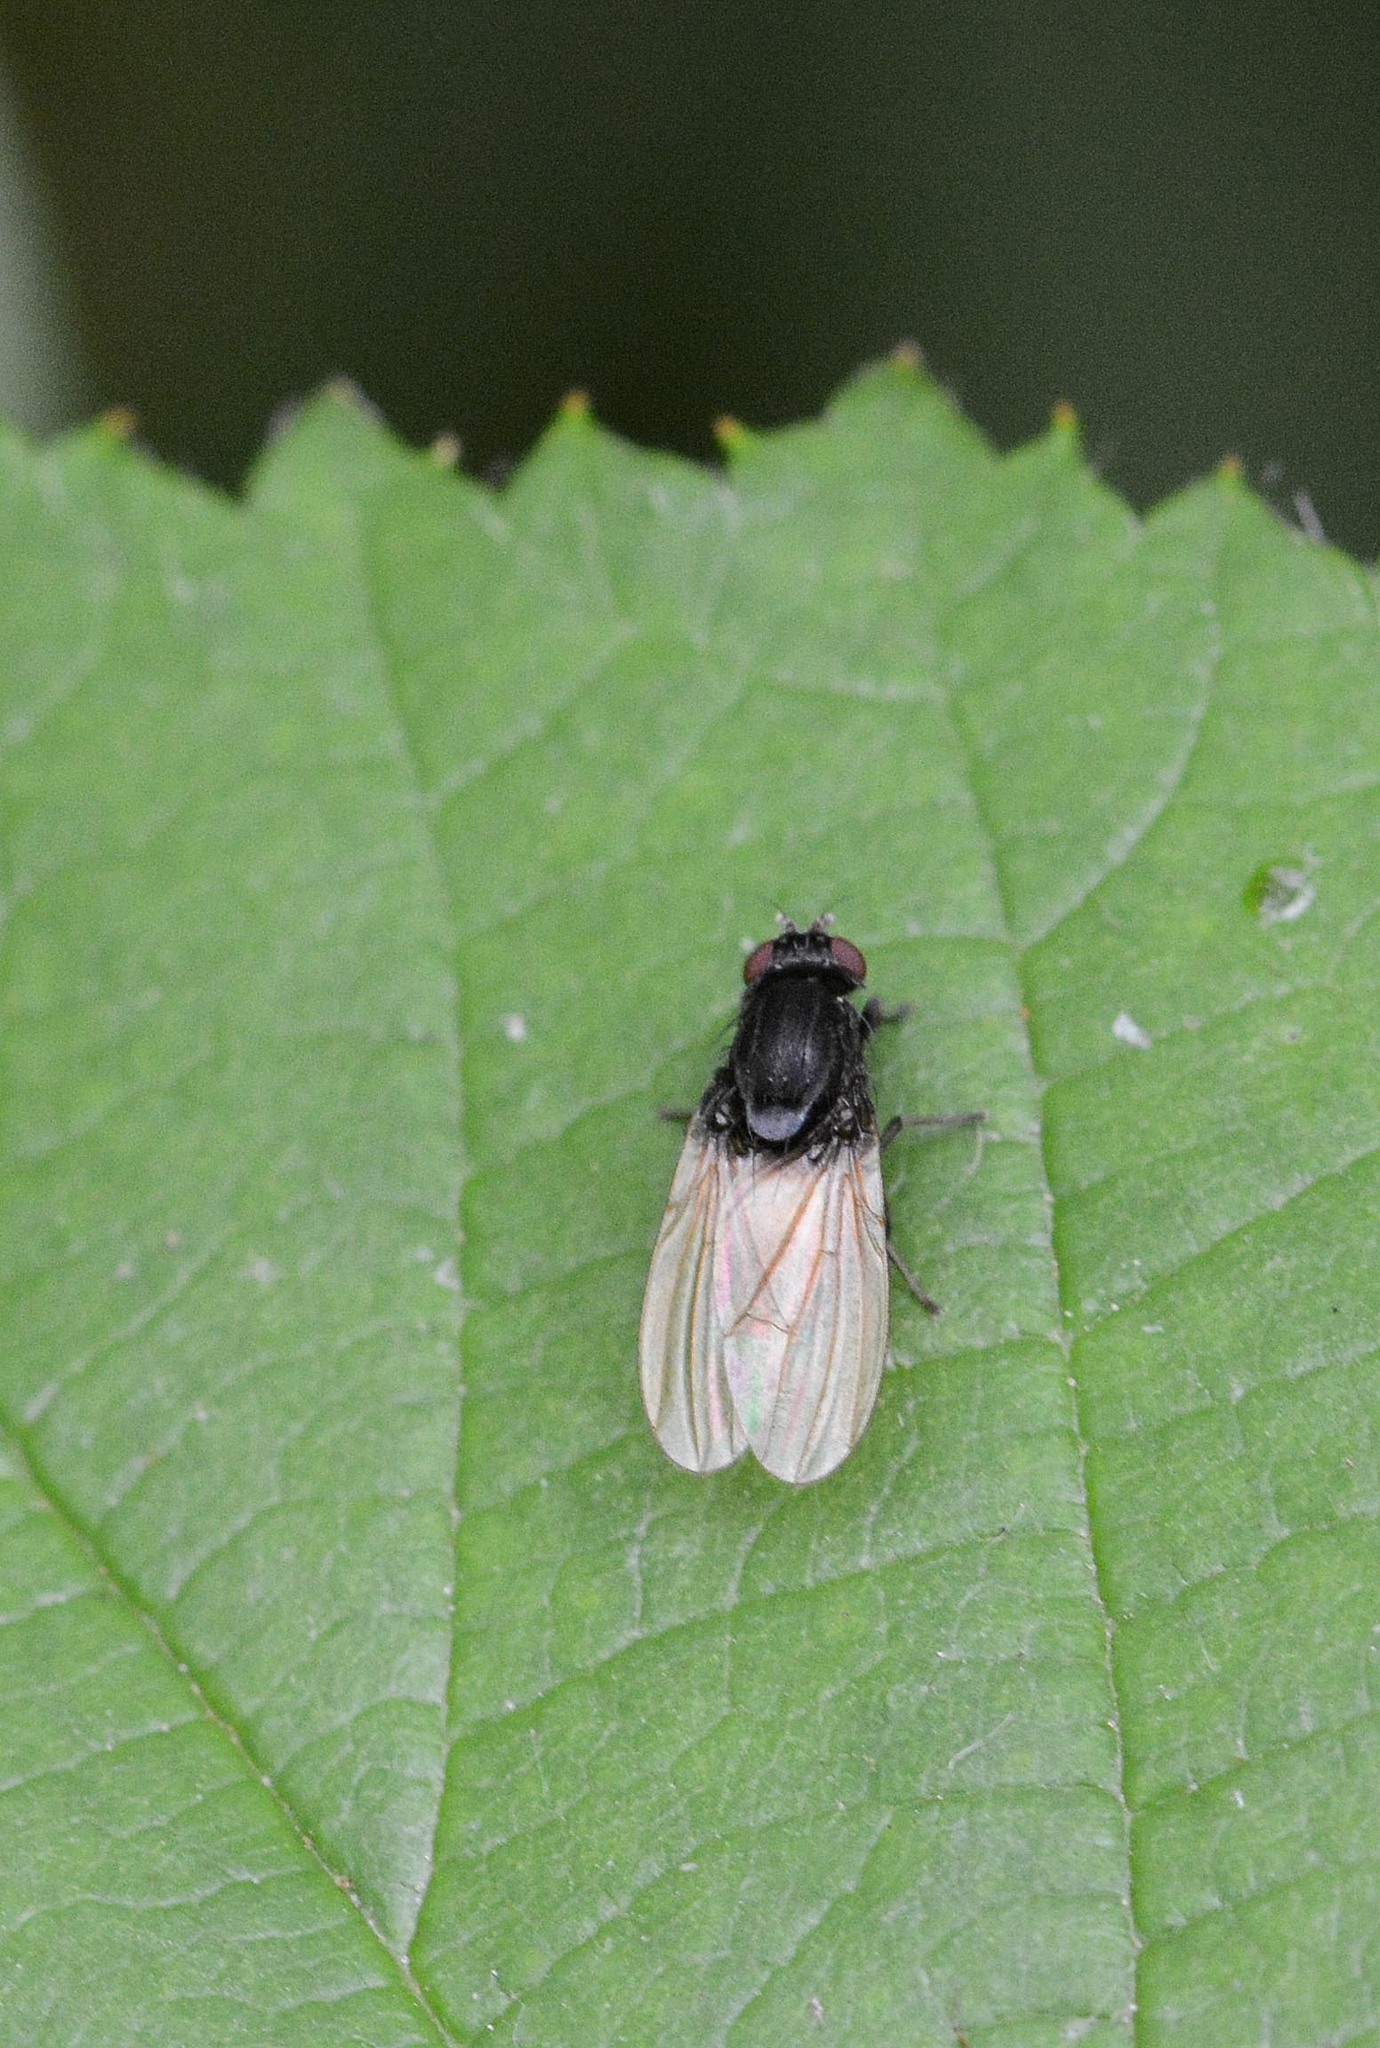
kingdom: Animalia
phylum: Arthropoda
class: Insecta
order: Diptera
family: Lauxaniidae
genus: Minettia
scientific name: Minettia longipennis
